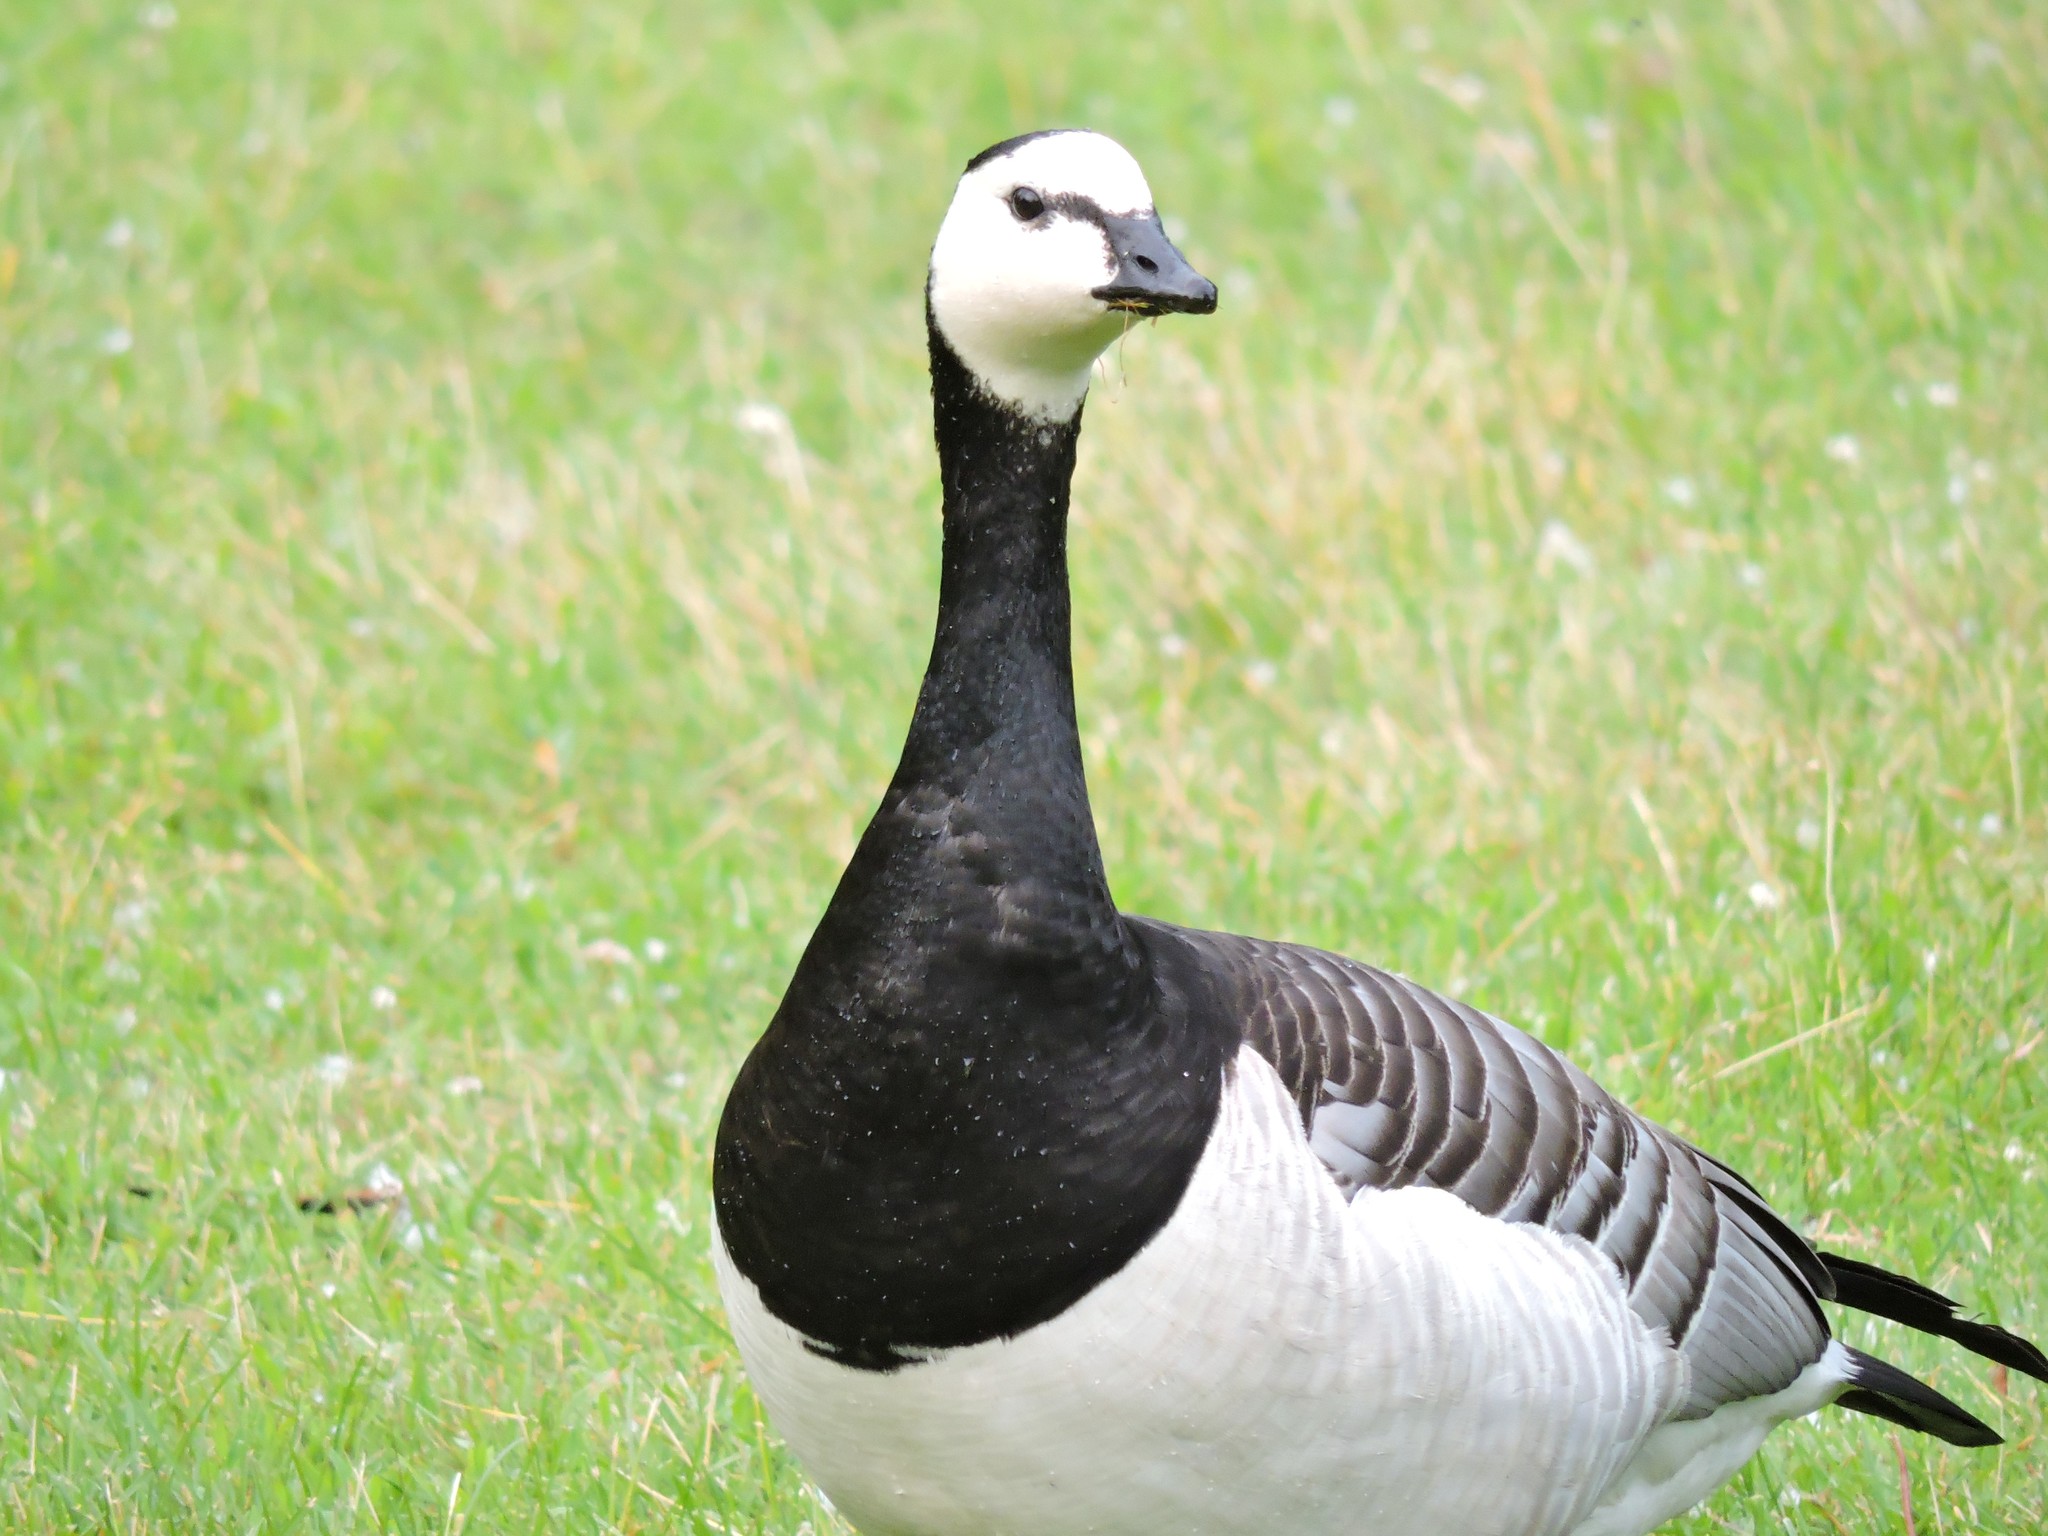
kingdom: Animalia
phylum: Chordata
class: Aves
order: Anseriformes
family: Anatidae
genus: Branta
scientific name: Branta leucopsis
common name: Barnacle goose
